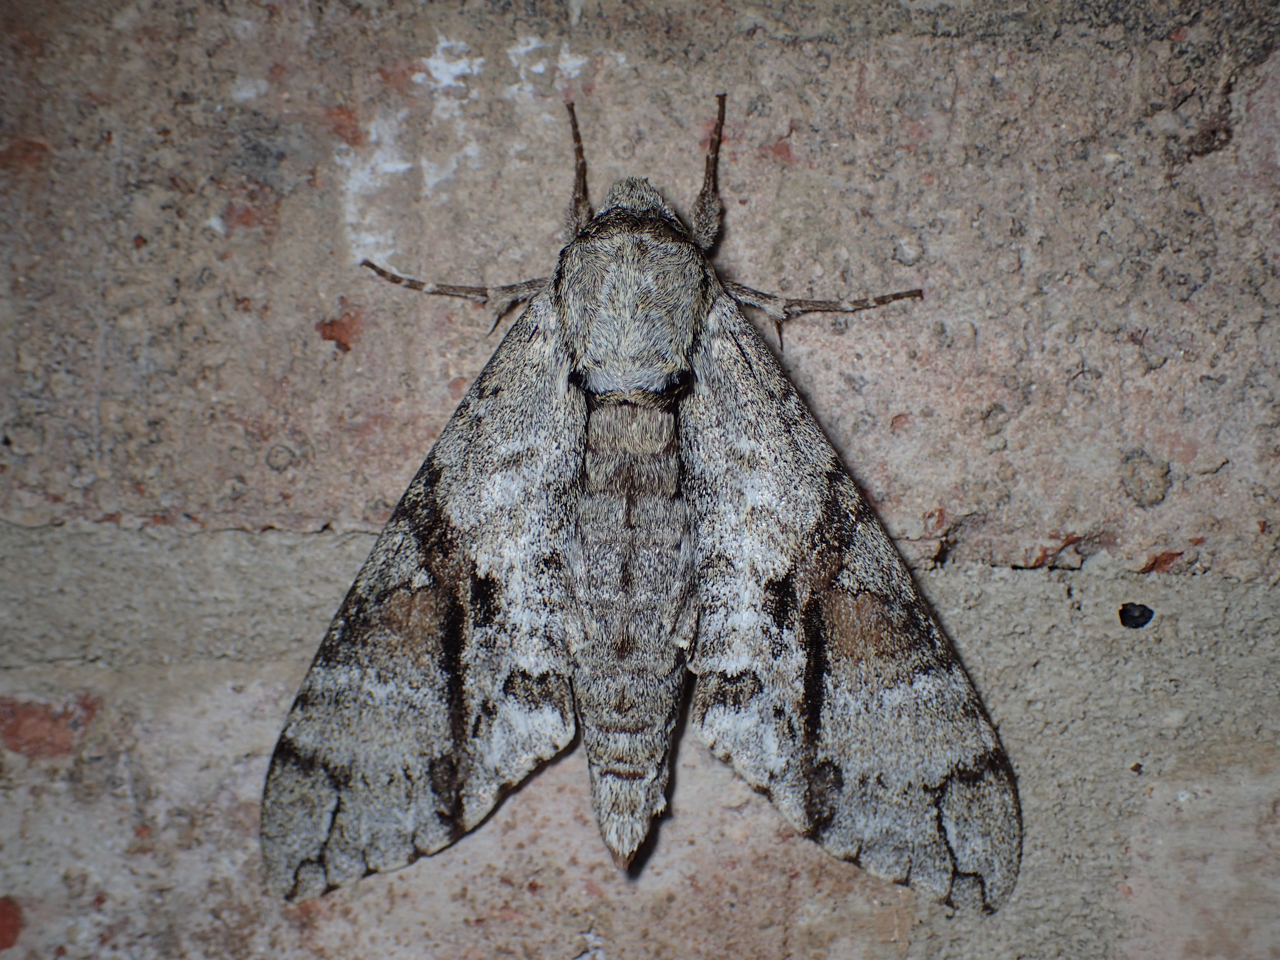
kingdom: Animalia
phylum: Arthropoda
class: Insecta
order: Lepidoptera
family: Sphingidae
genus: Manduca
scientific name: Manduca jasminearum
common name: Ash sphinx
